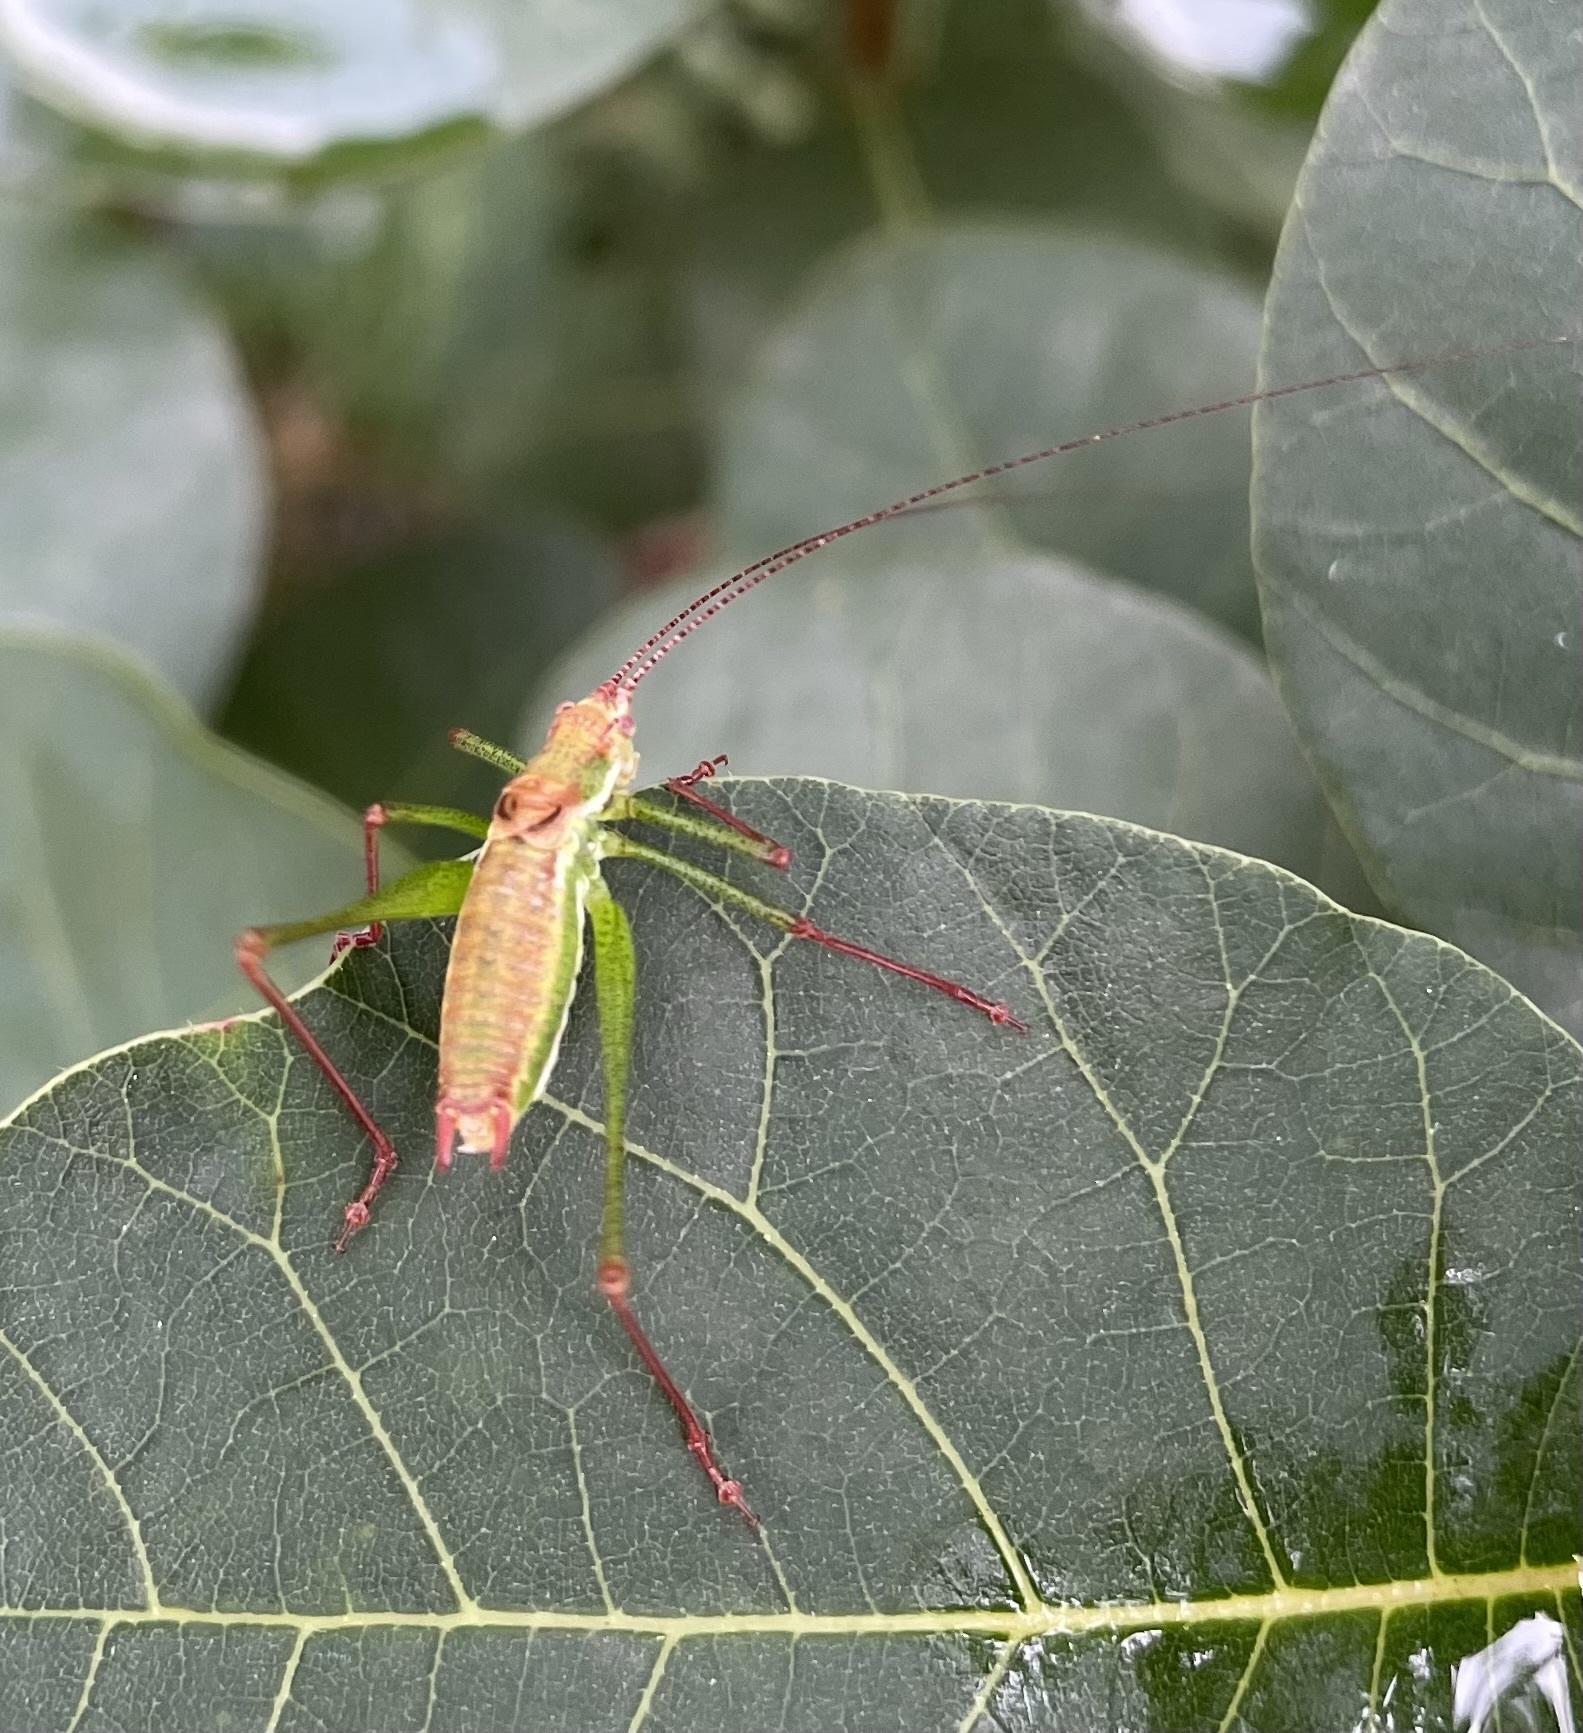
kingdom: Animalia
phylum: Arthropoda
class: Insecta
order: Orthoptera
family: Tettigoniidae
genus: Leptophyes
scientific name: Leptophyes albovittata
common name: Striped bush-cricket
